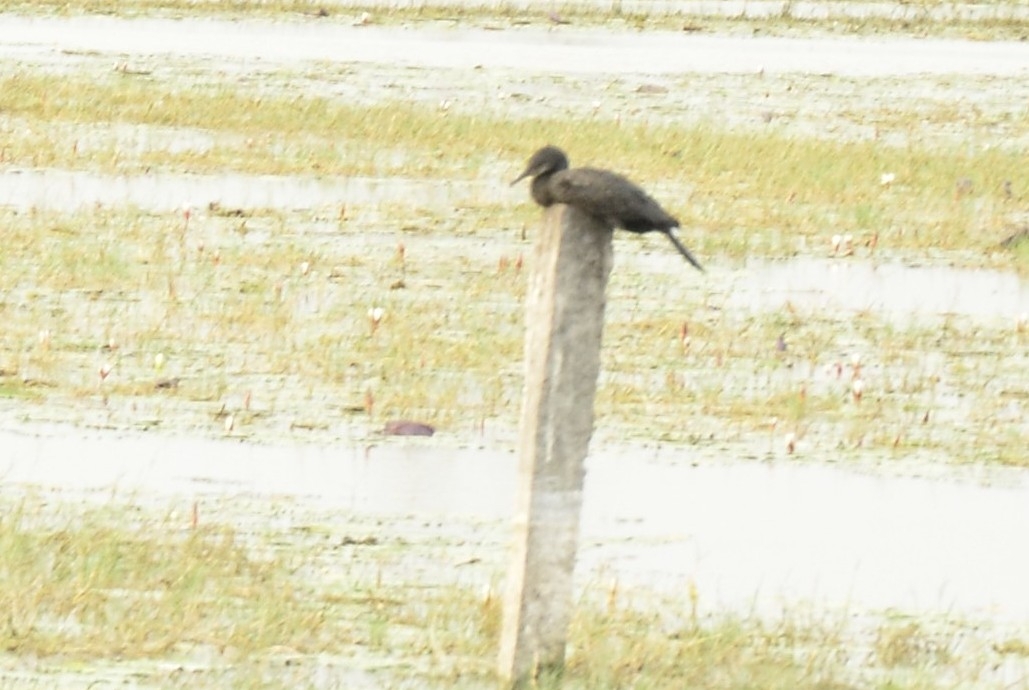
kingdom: Animalia
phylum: Chordata
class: Aves
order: Suliformes
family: Phalacrocoracidae
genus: Microcarbo
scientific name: Microcarbo niger
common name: Little cormorant
